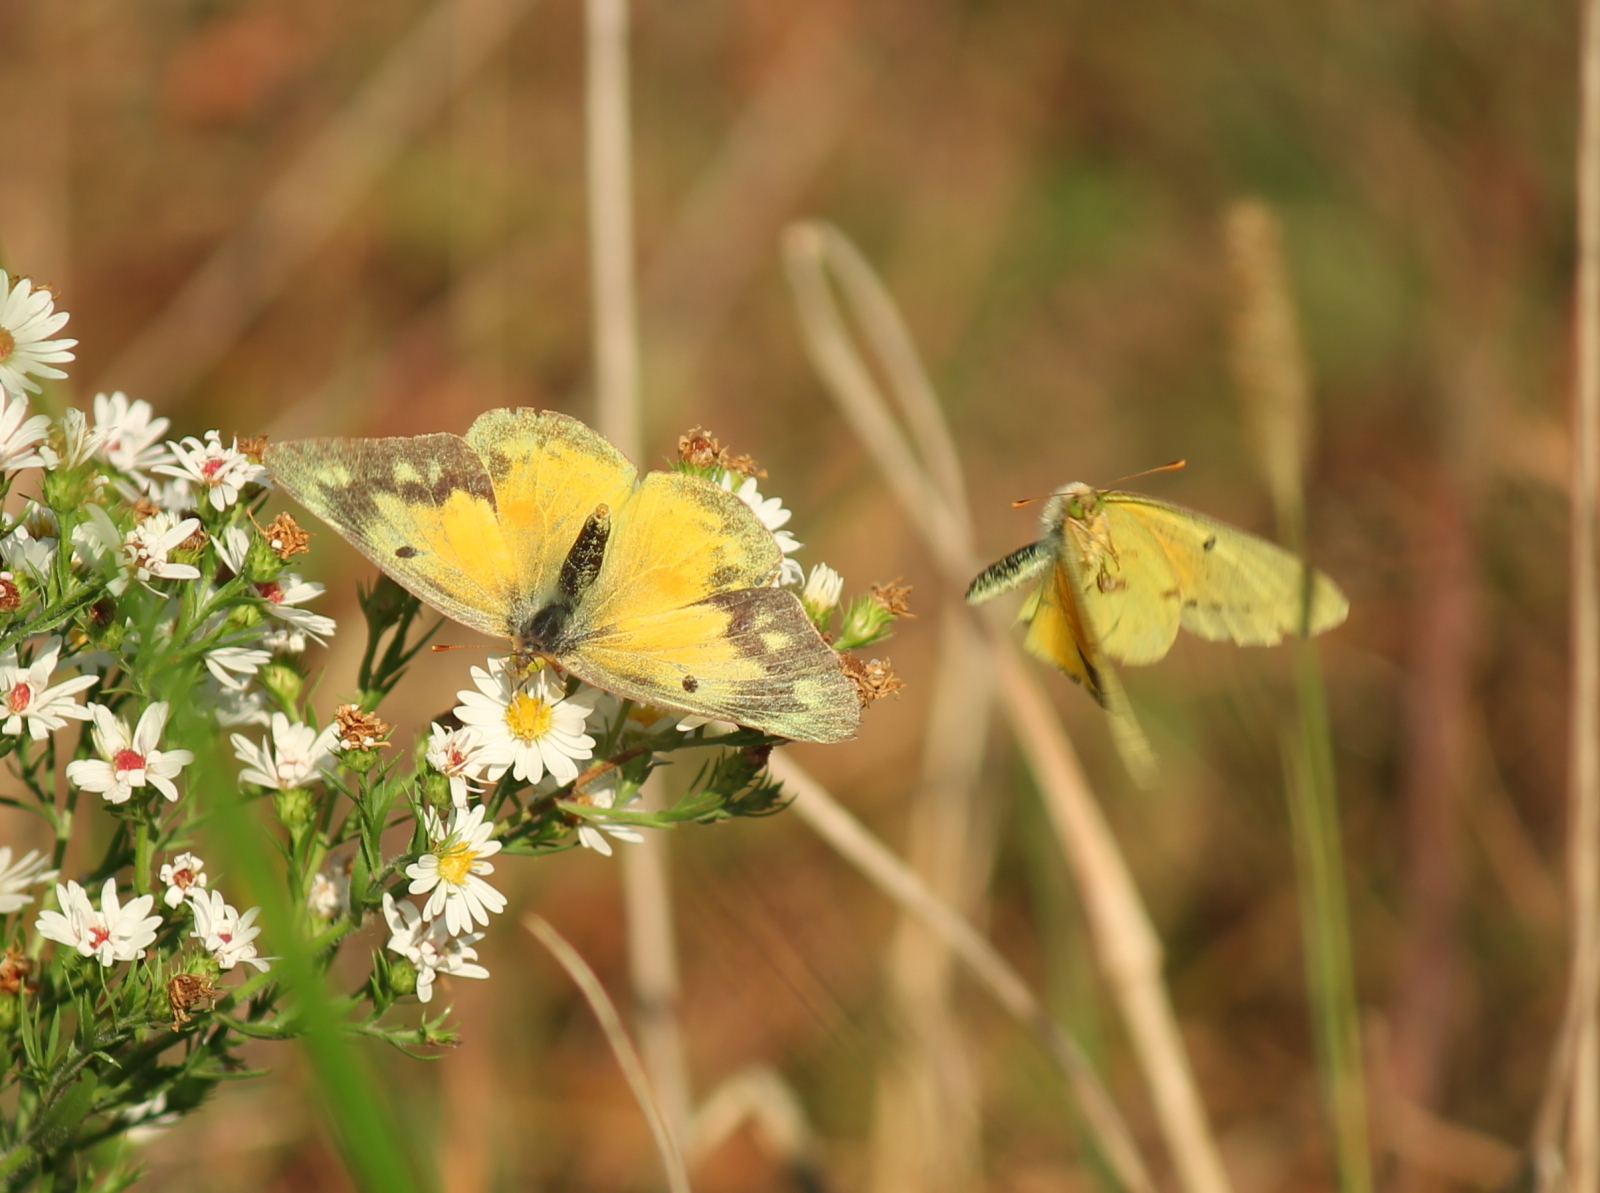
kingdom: Animalia
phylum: Arthropoda
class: Insecta
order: Lepidoptera
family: Pieridae
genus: Colias
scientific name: Colias eurytheme
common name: Alfalfa butterfly
